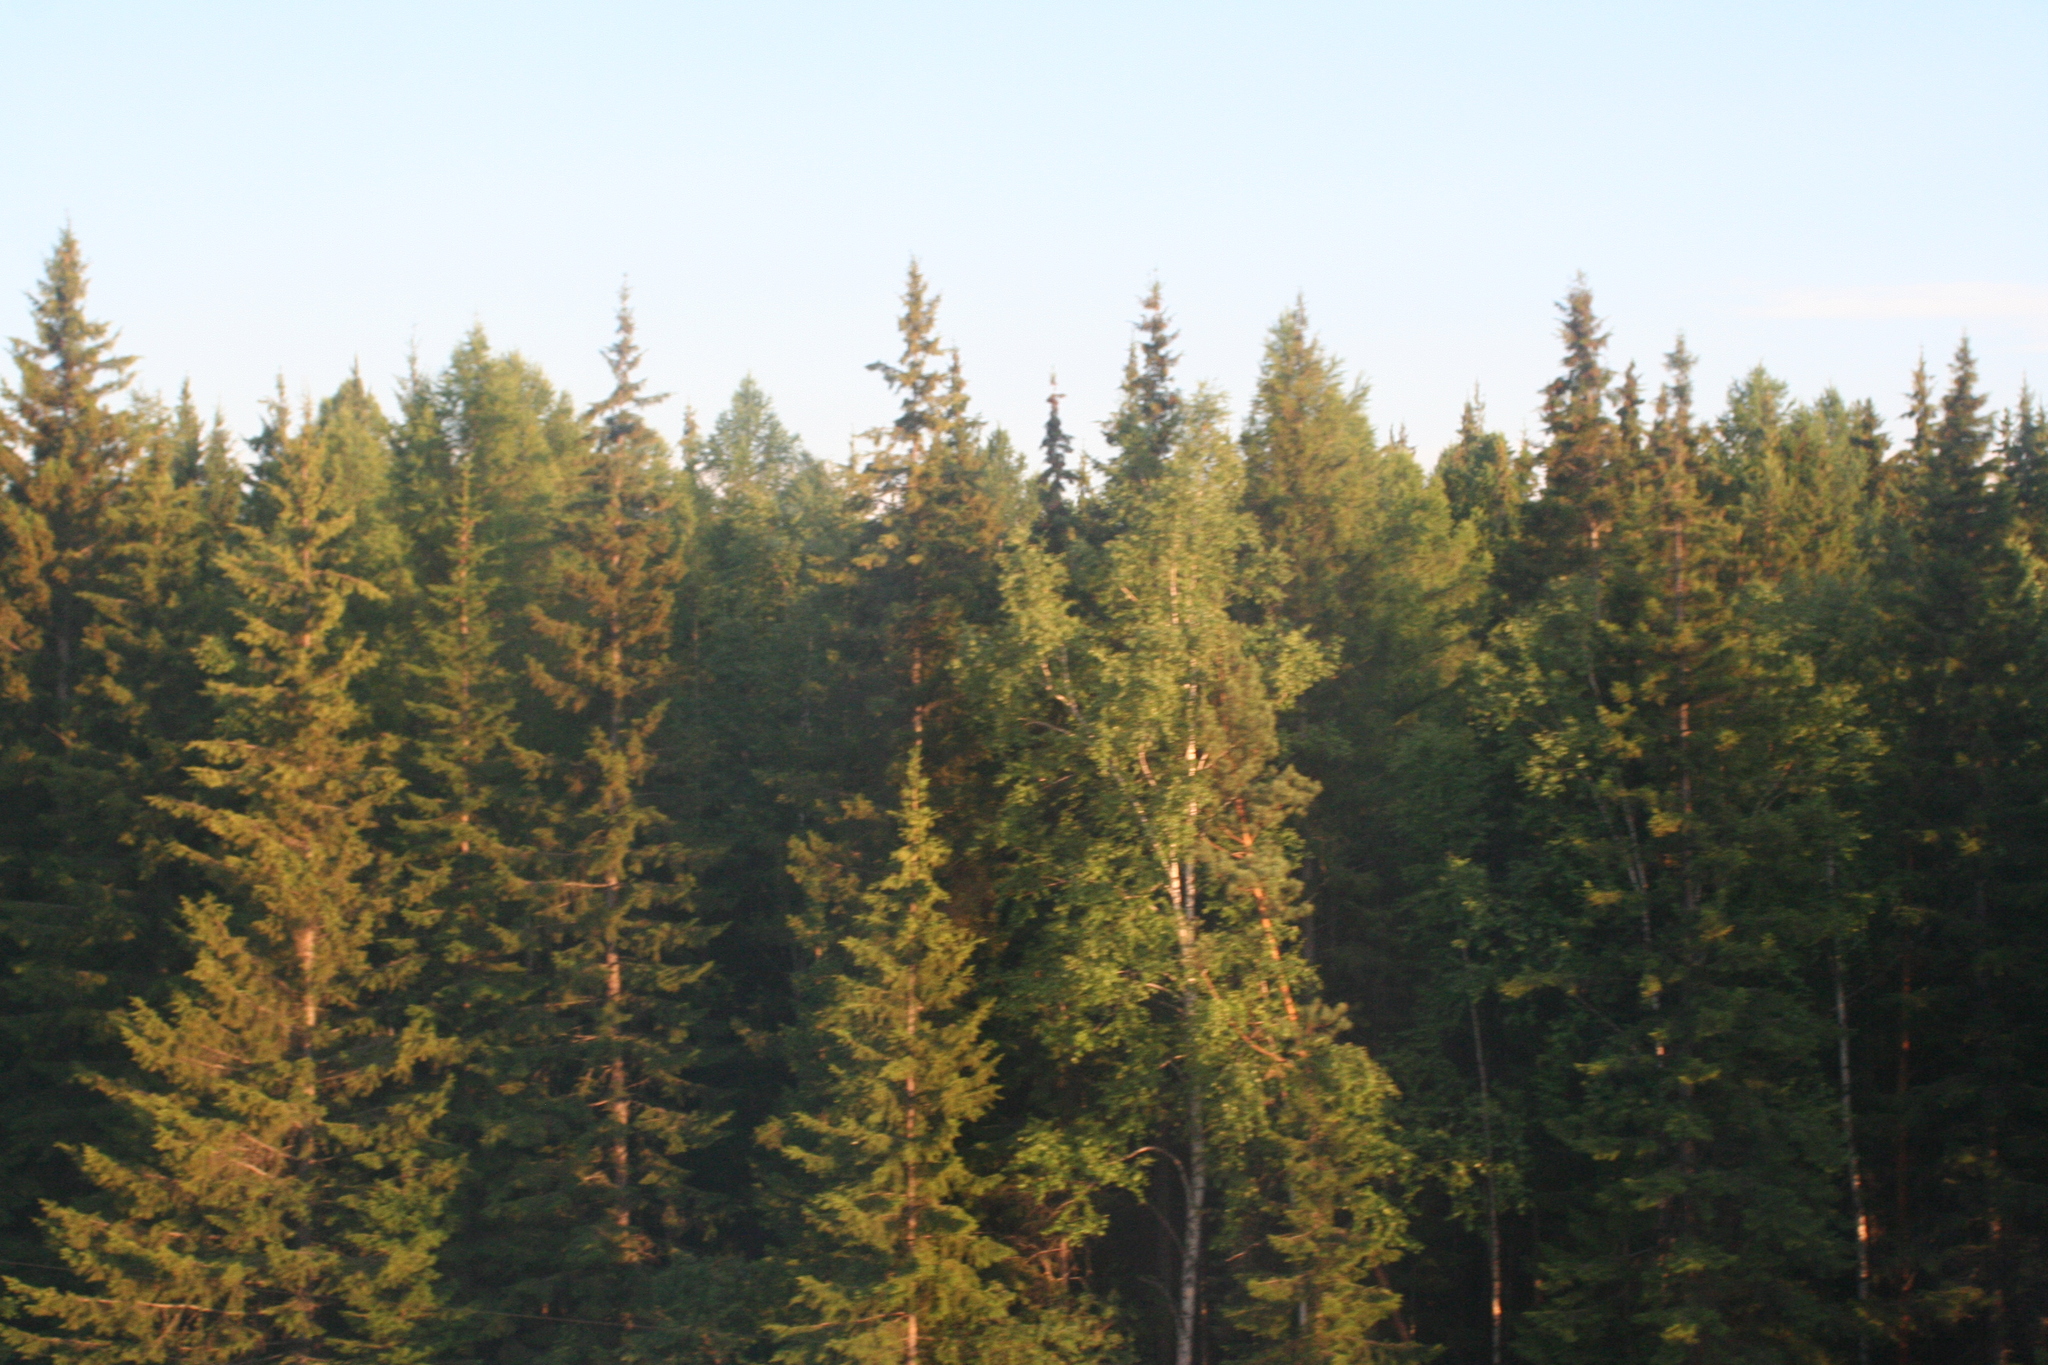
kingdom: Plantae
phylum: Tracheophyta
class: Pinopsida
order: Pinales
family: Pinaceae
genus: Picea
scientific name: Picea obovata
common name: Siberian spruce
